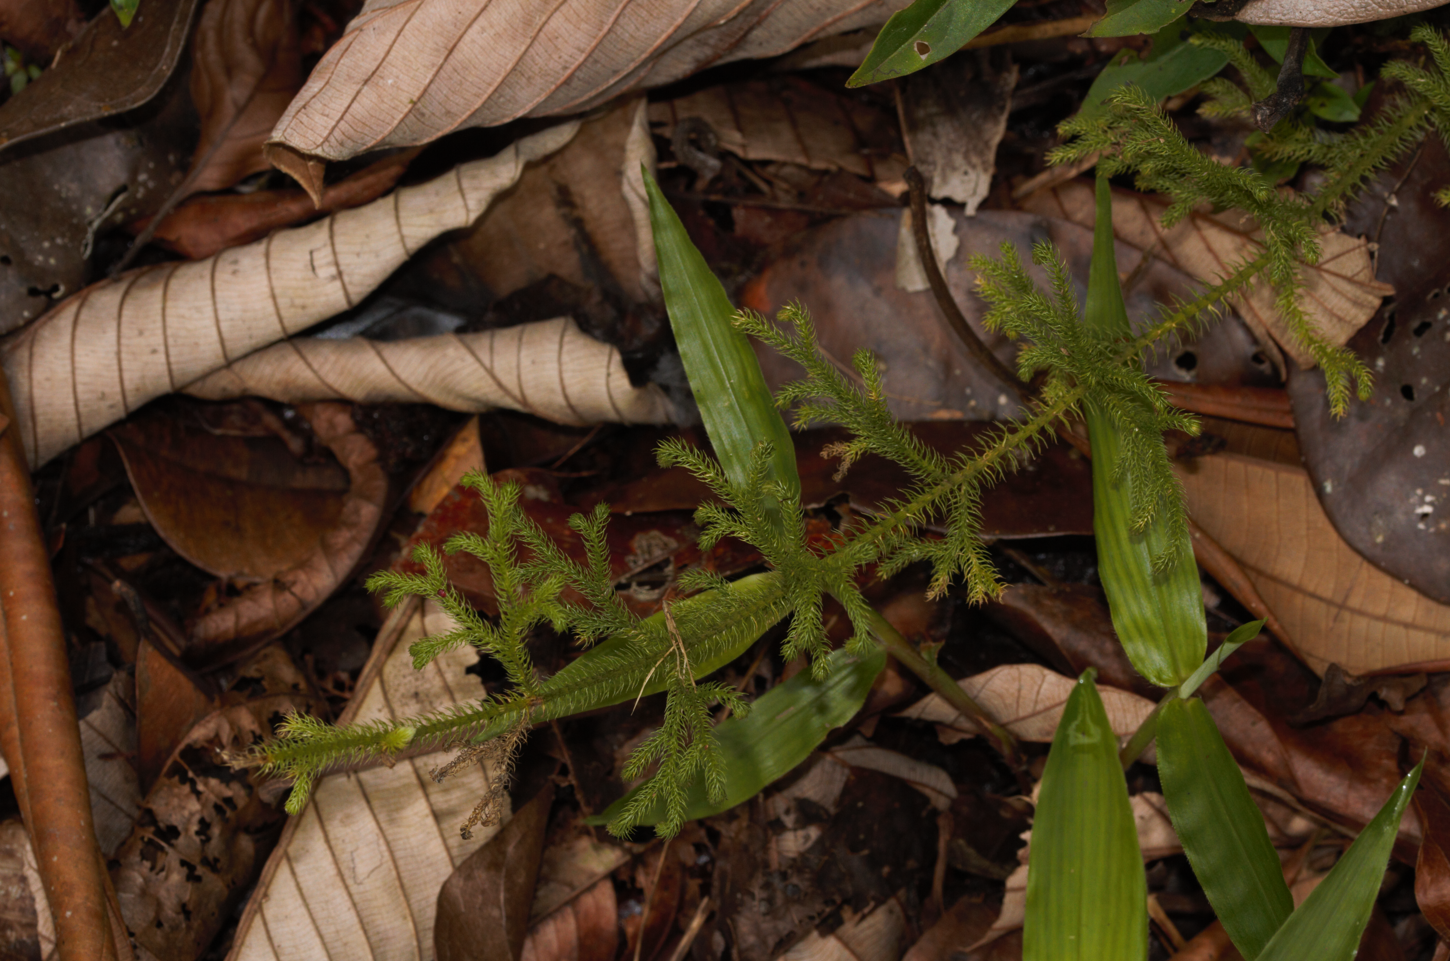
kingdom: Plantae
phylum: Tracheophyta
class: Lycopodiopsida
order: Lycopodiales
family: Lycopodiaceae
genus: Palhinhaea
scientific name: Palhinhaea cernua
